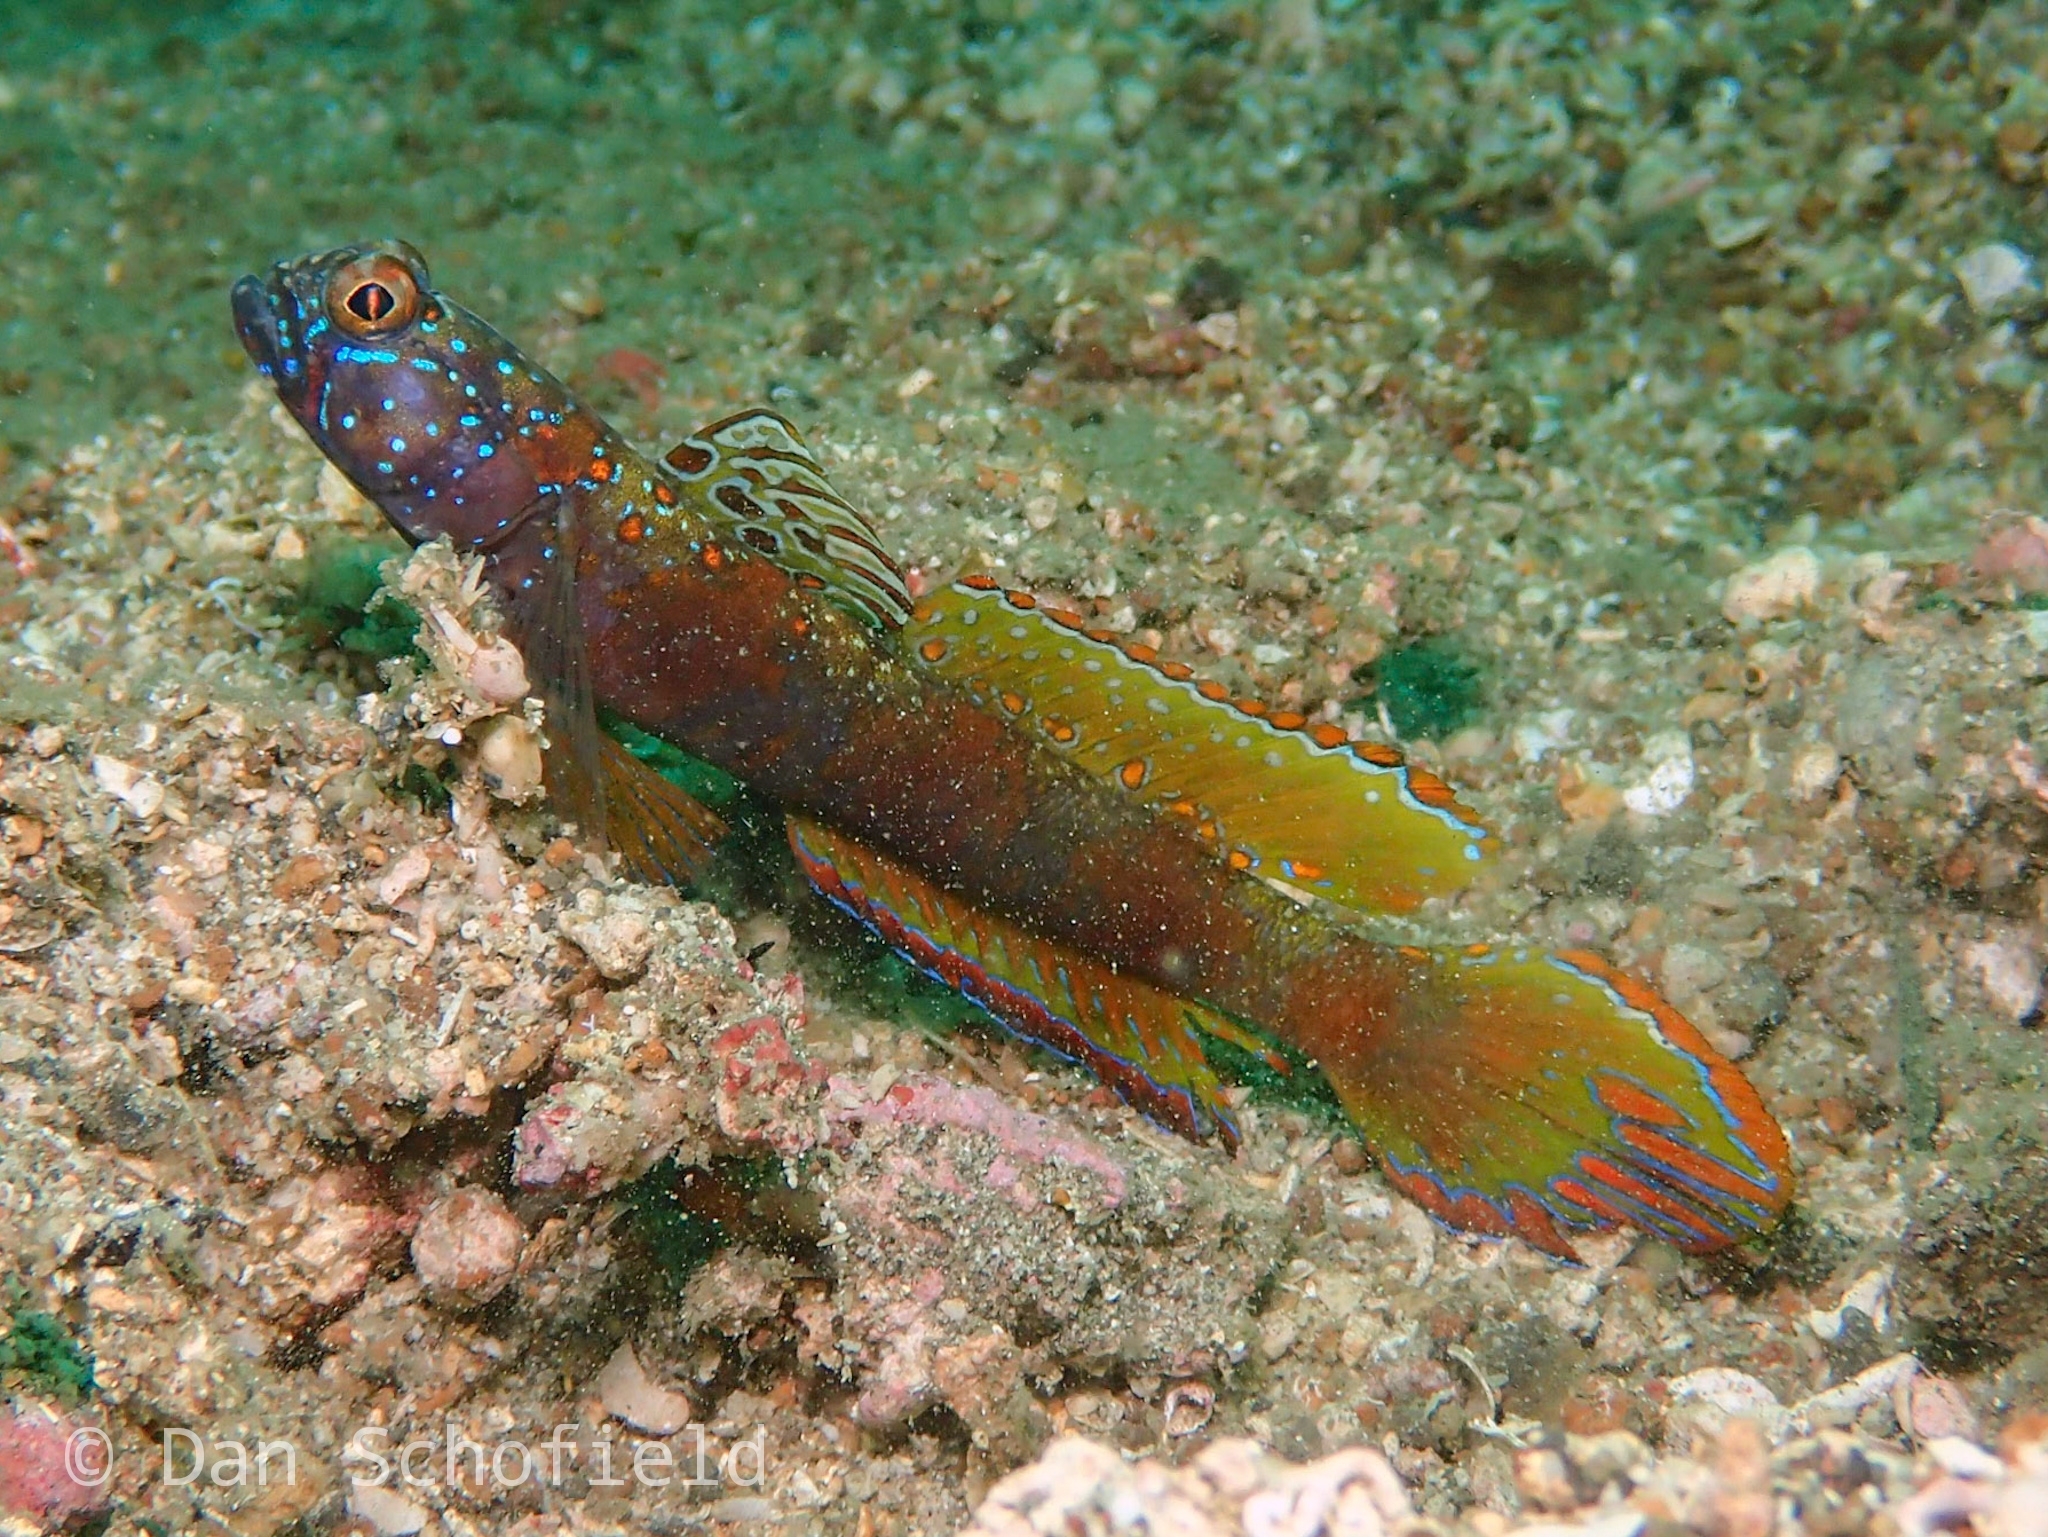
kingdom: Animalia
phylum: Chordata
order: Perciformes
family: Gobiidae
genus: Amblyeleotris
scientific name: Amblyeleotris latifasciata
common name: Broad-band prawn-goby
